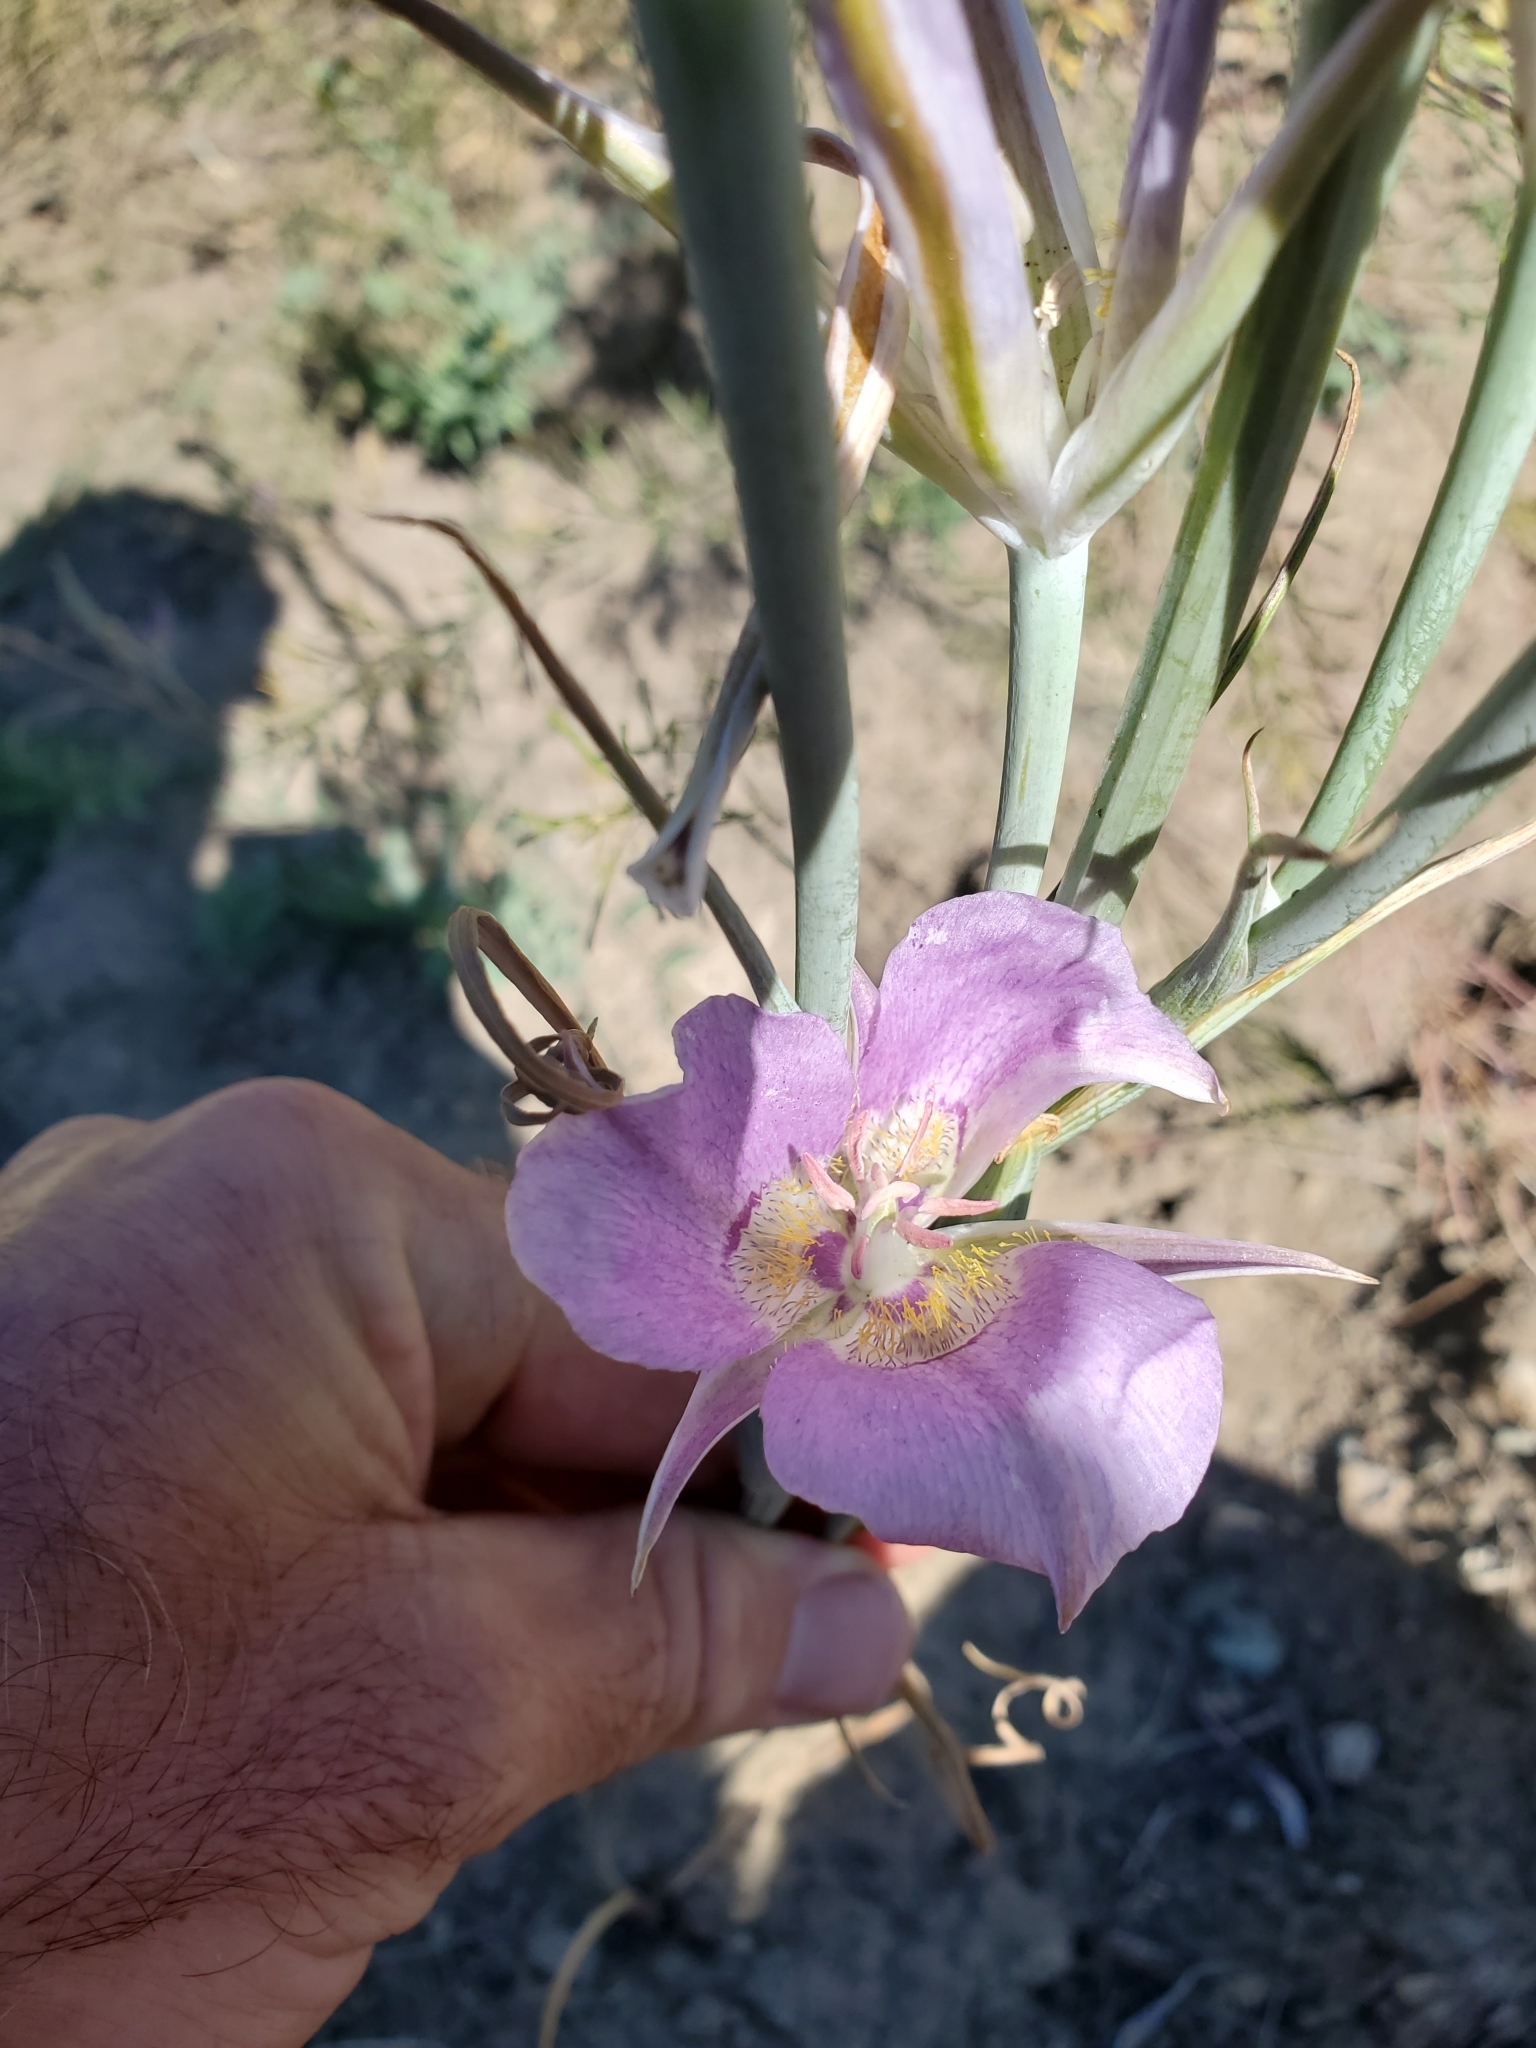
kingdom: Plantae
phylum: Tracheophyta
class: Liliopsida
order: Liliales
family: Liliaceae
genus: Calochortus
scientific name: Calochortus macrocarpus
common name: Green-band mariposa lily
